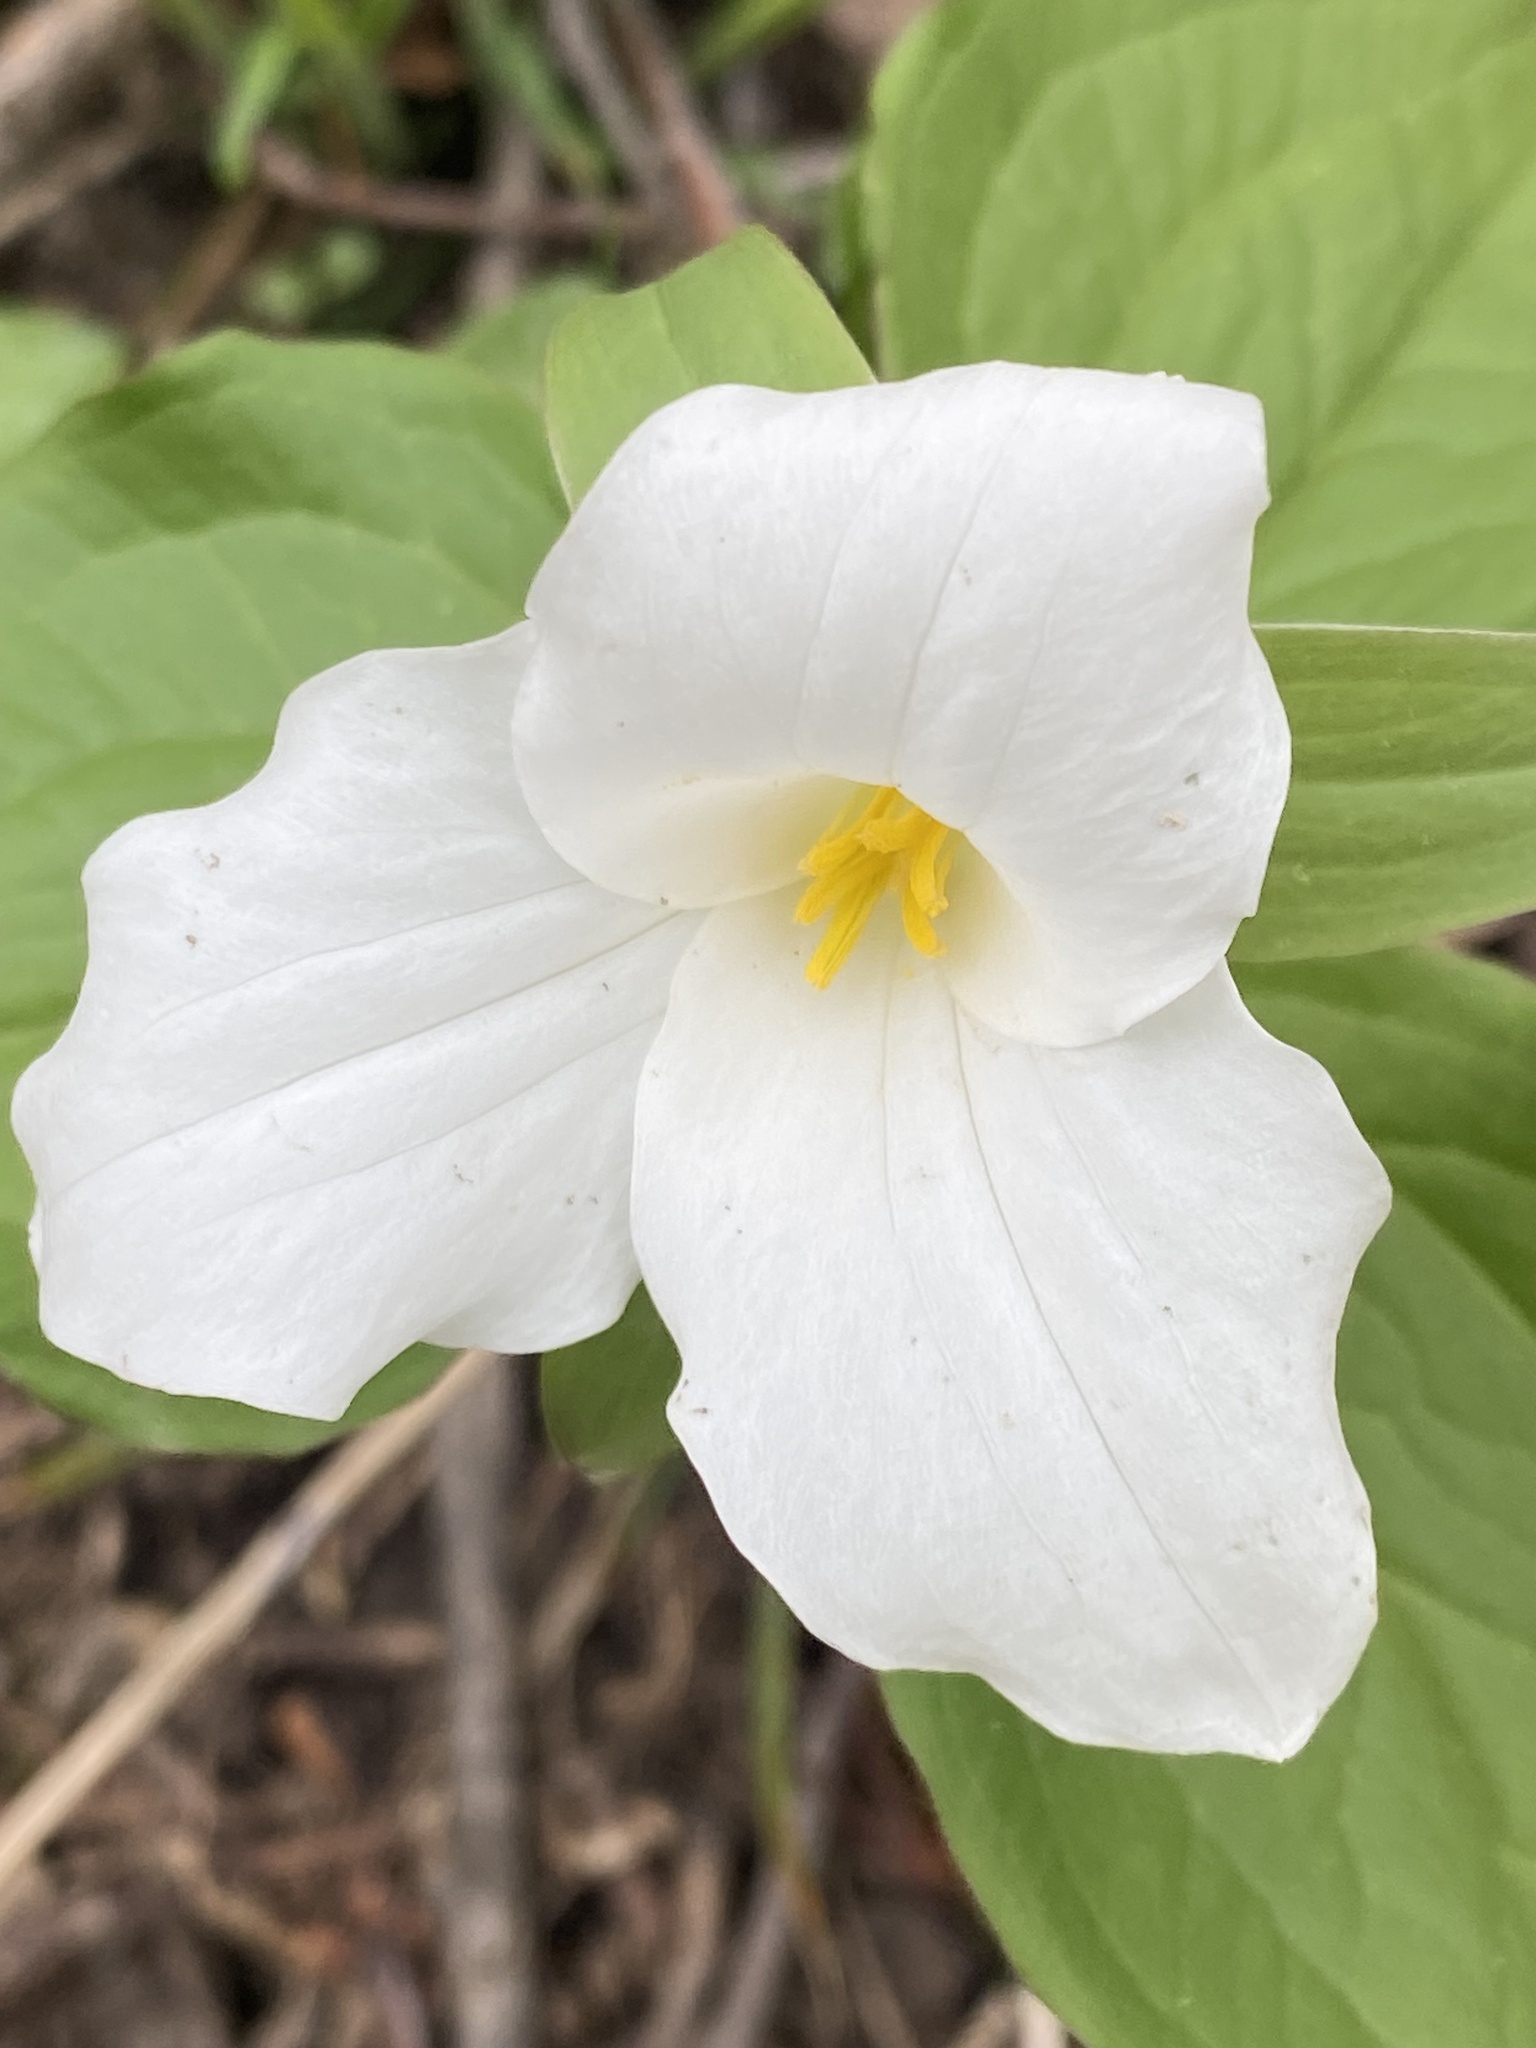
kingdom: Plantae
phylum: Tracheophyta
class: Liliopsida
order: Liliales
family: Melanthiaceae
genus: Trillium
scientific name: Trillium grandiflorum
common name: Great white trillium
